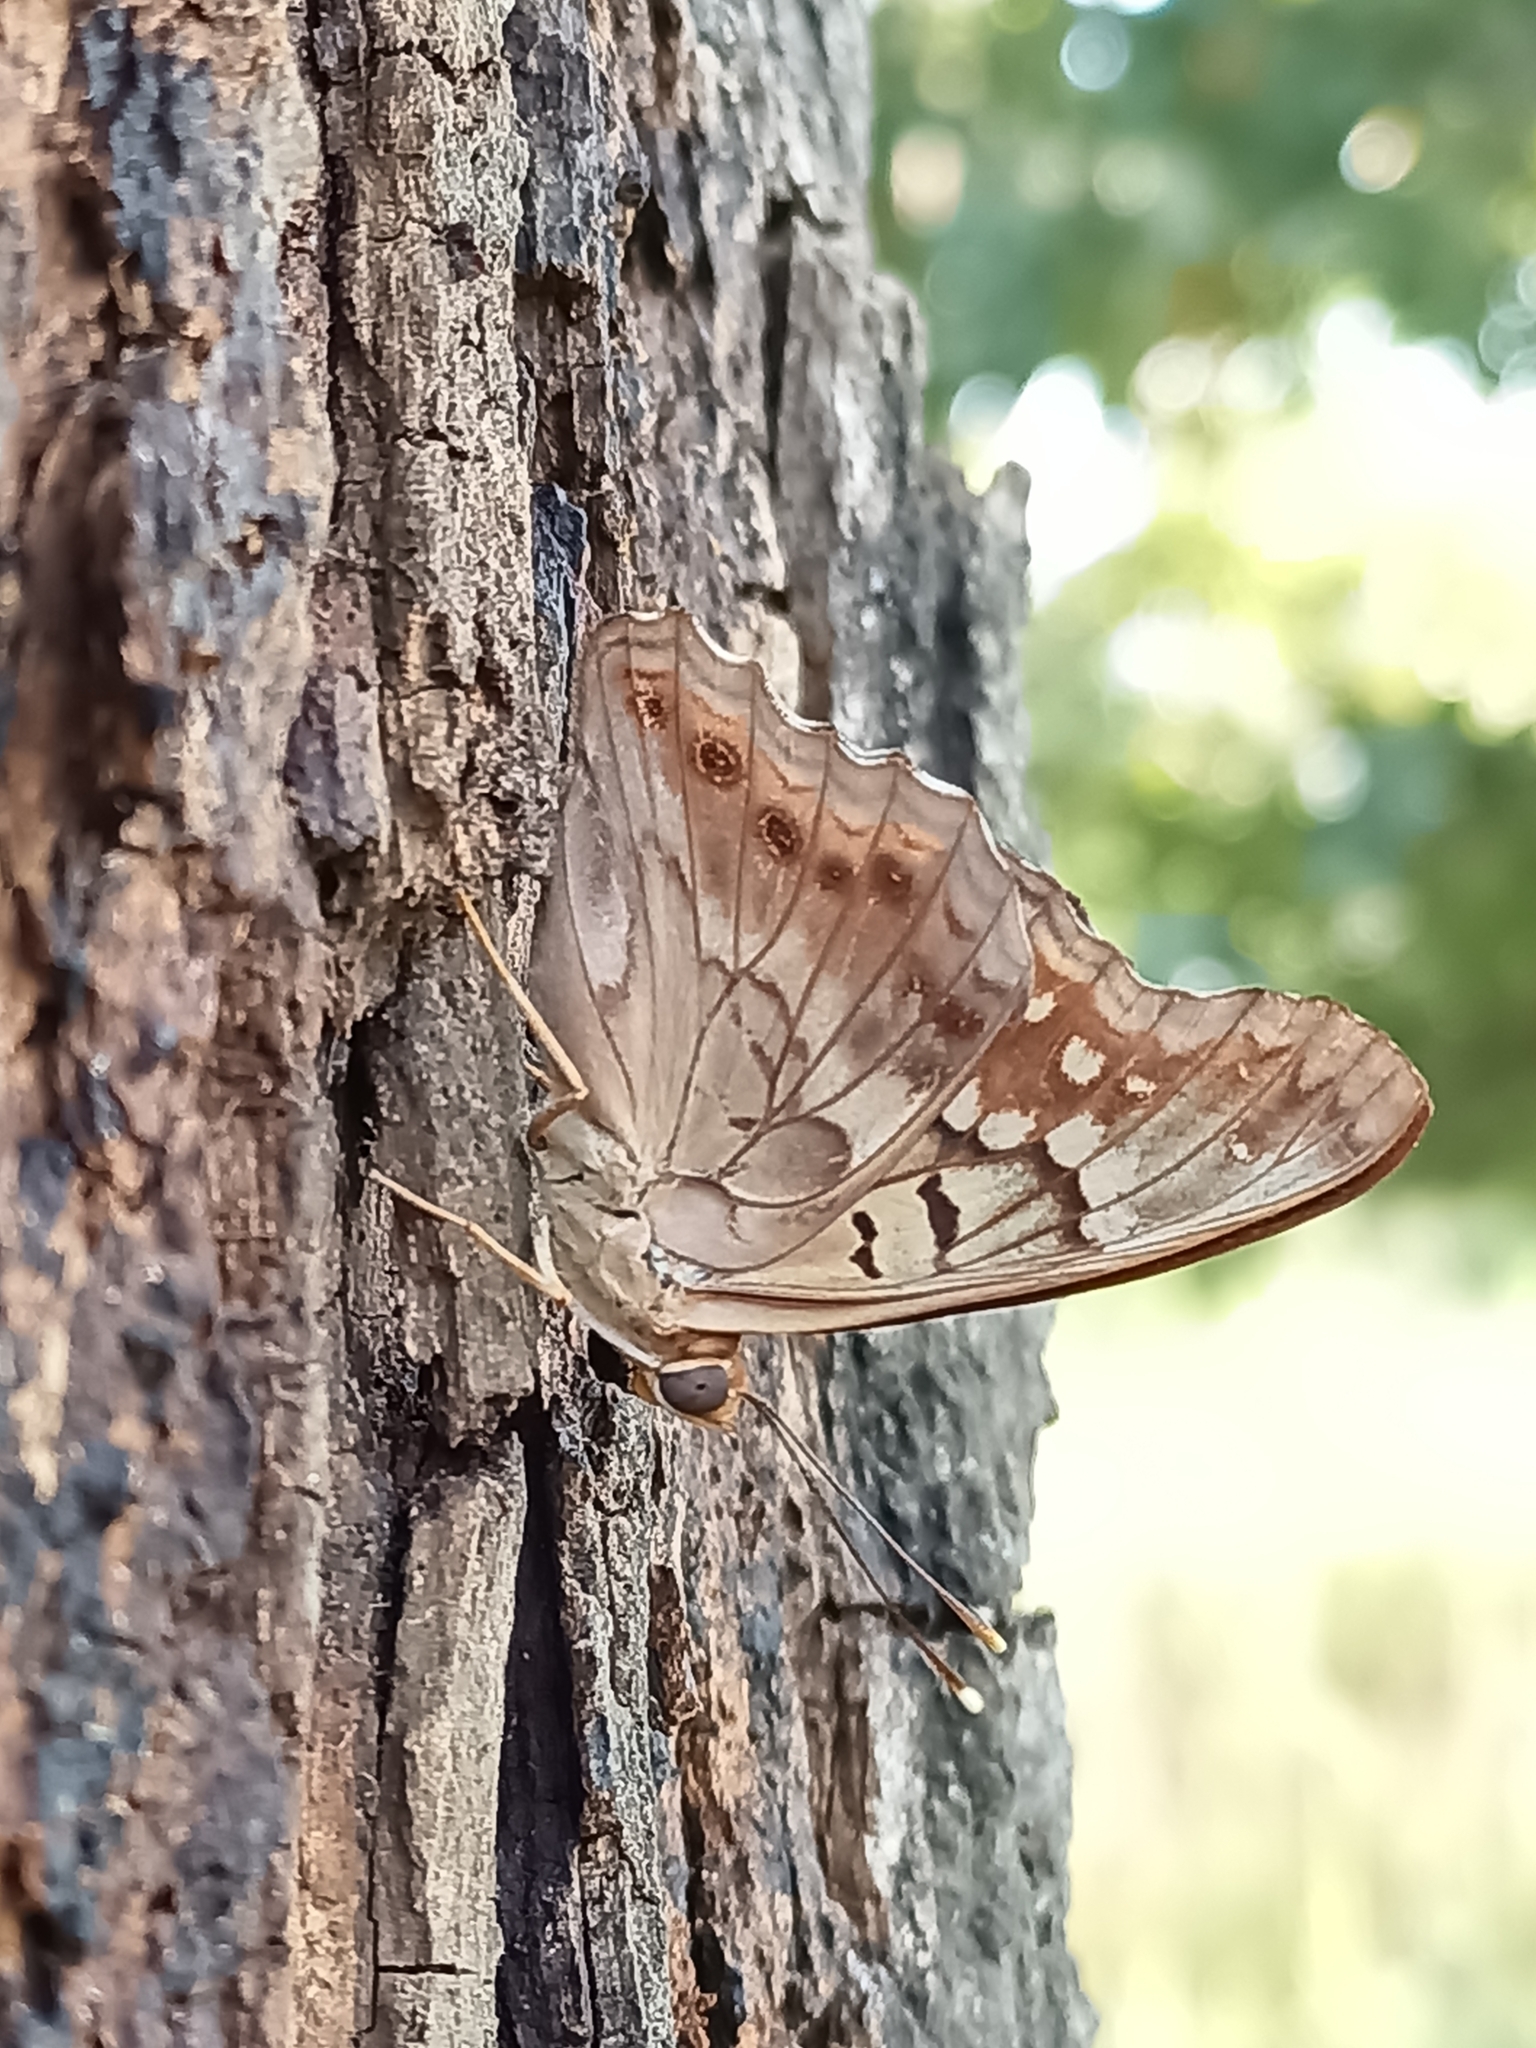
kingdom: Animalia
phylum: Arthropoda
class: Insecta
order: Lepidoptera
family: Nymphalidae
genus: Asterocampa
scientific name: Asterocampa clyton
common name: Tawny emperor
